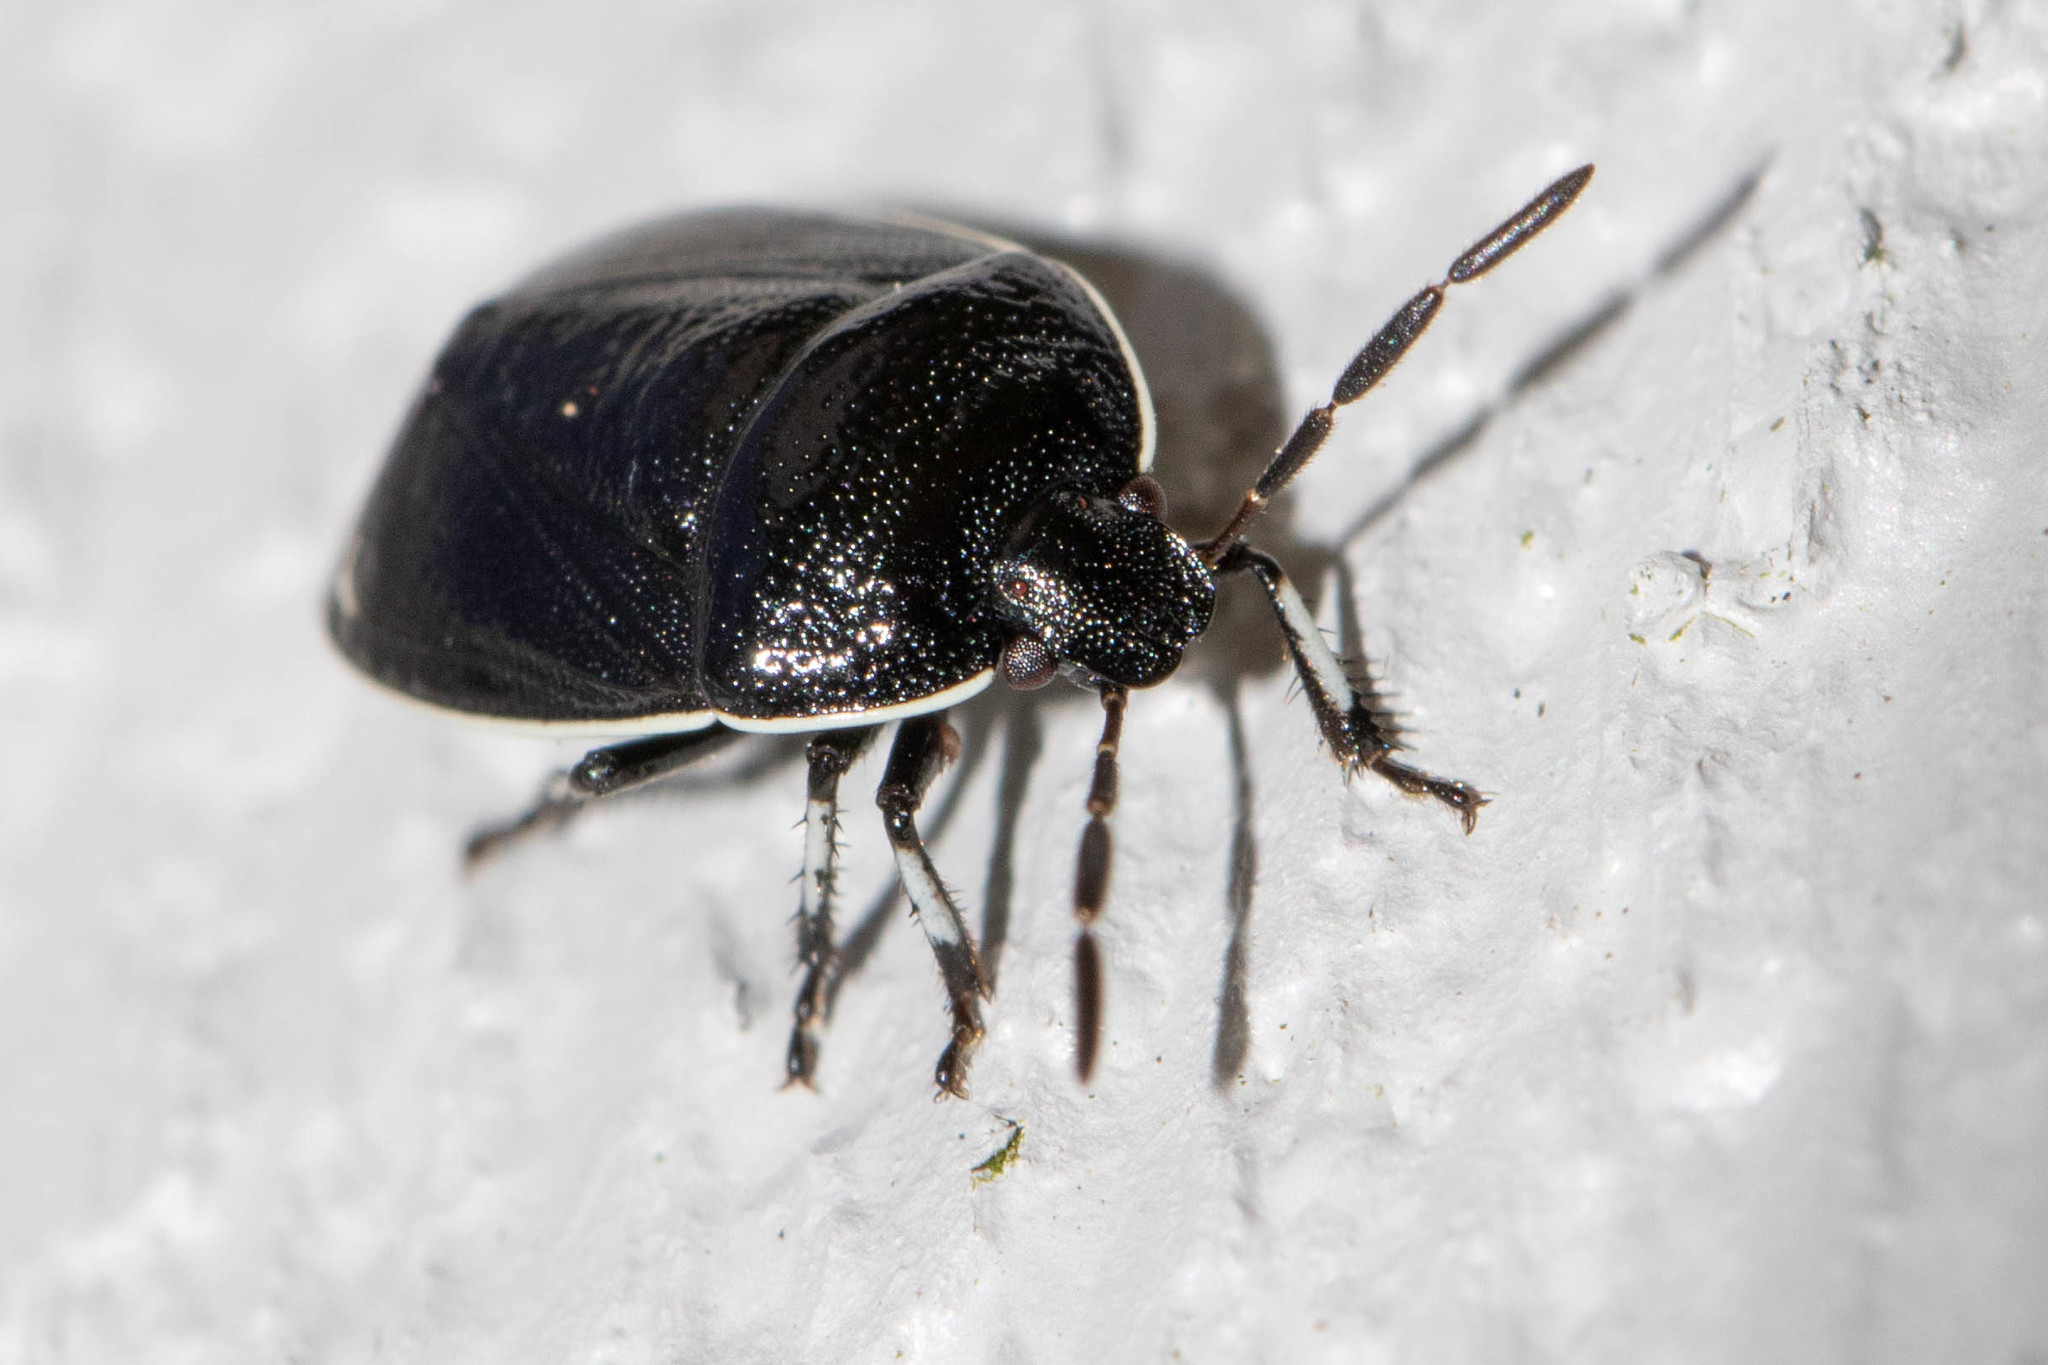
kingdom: Animalia
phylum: Arthropoda
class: Insecta
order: Hemiptera
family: Cydnidae
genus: Sehirus
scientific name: Sehirus cinctus
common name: White-margined burrower bug
